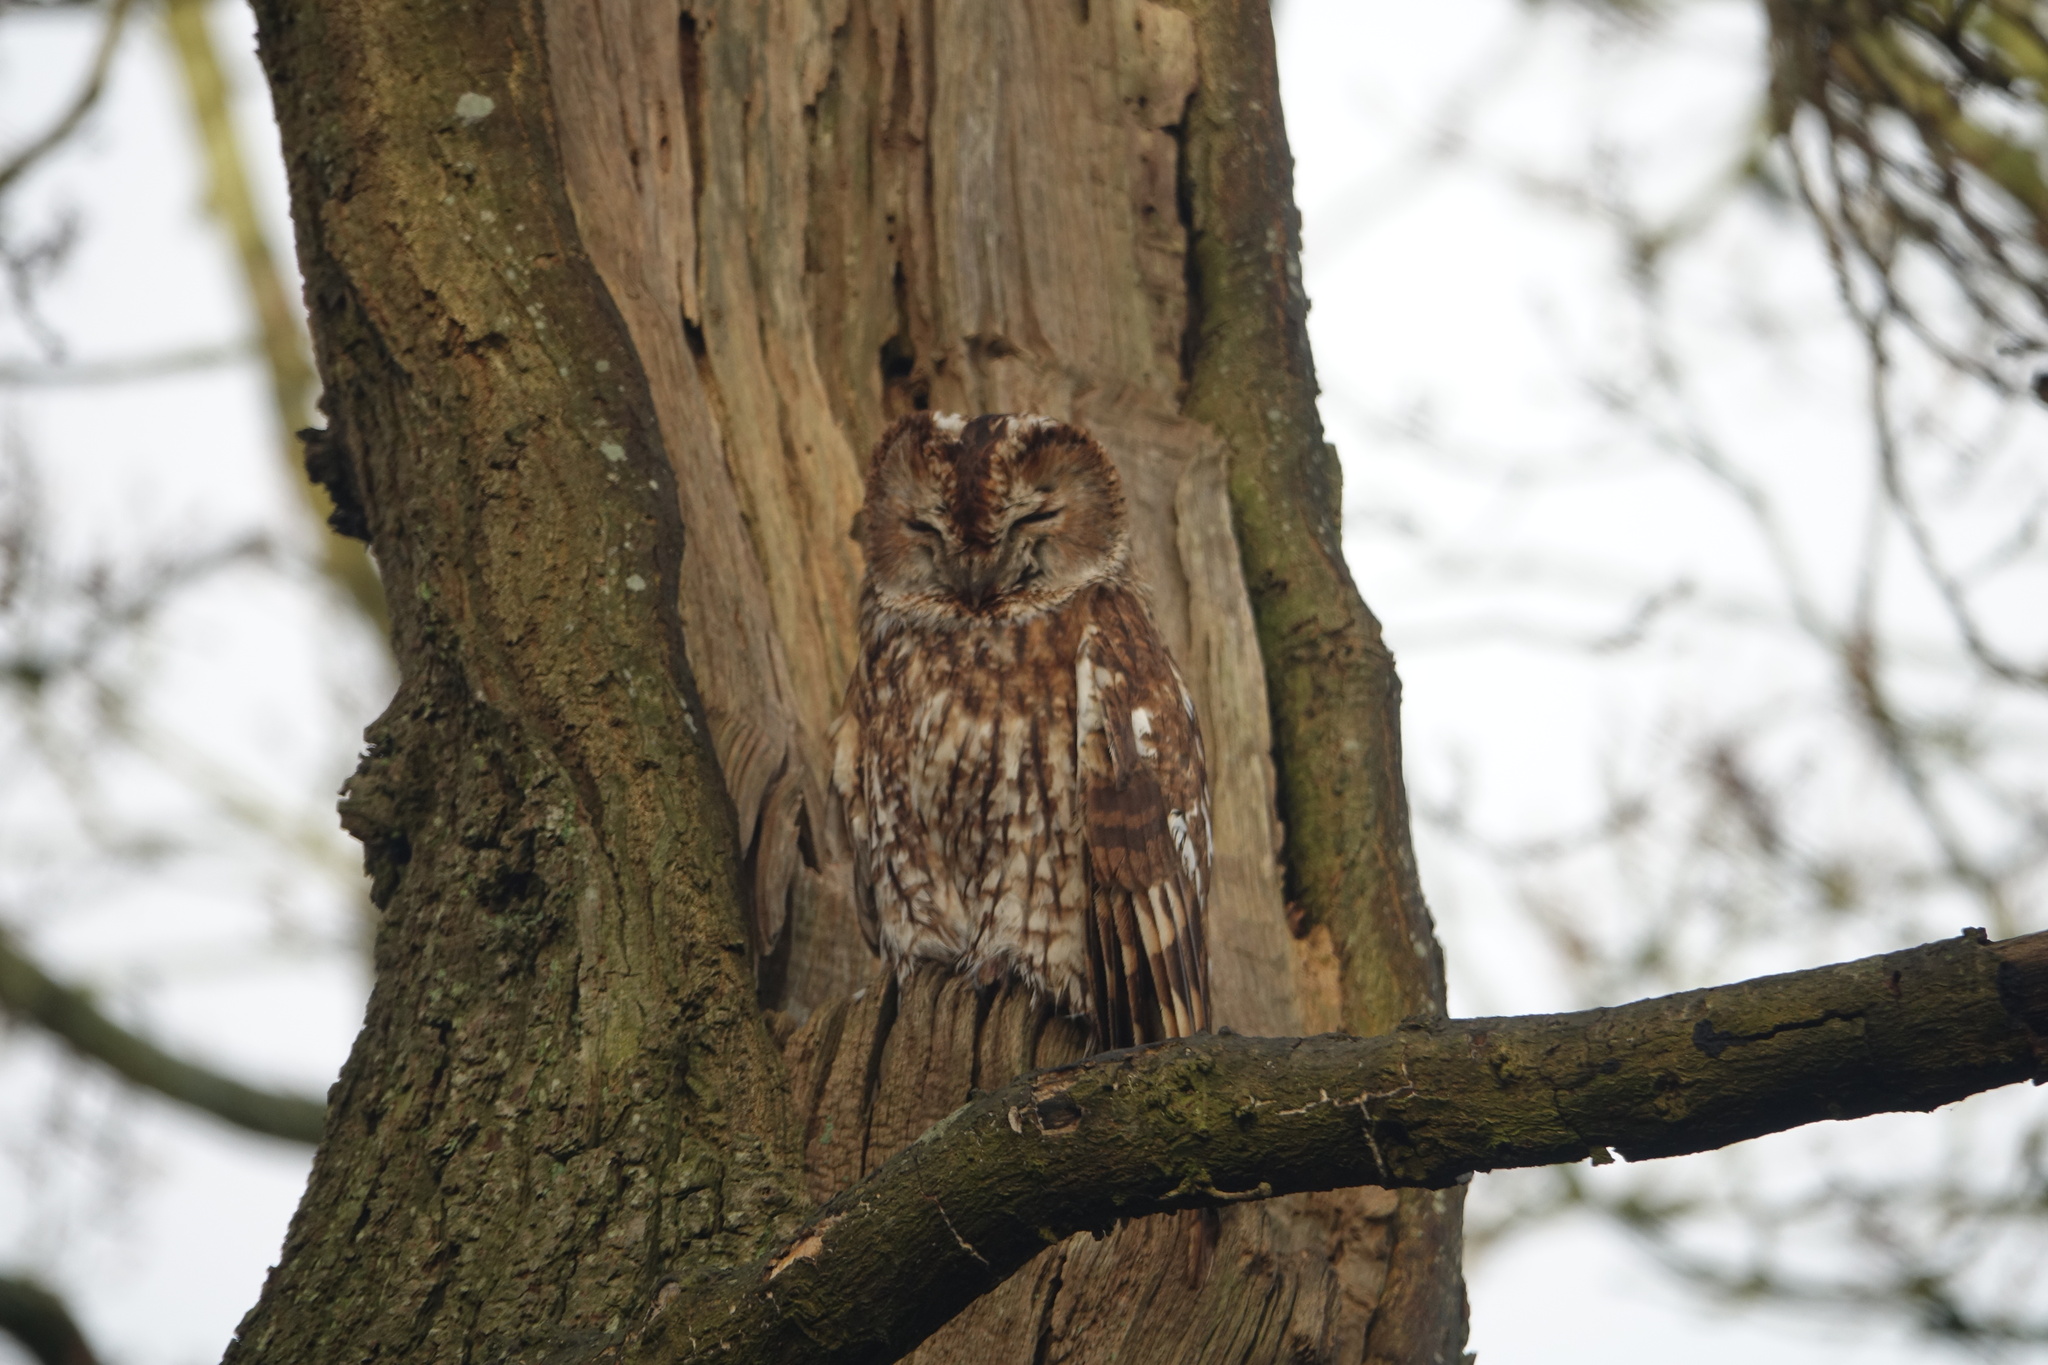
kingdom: Animalia
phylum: Chordata
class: Aves
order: Strigiformes
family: Strigidae
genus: Strix
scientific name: Strix aluco
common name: Tawny owl
